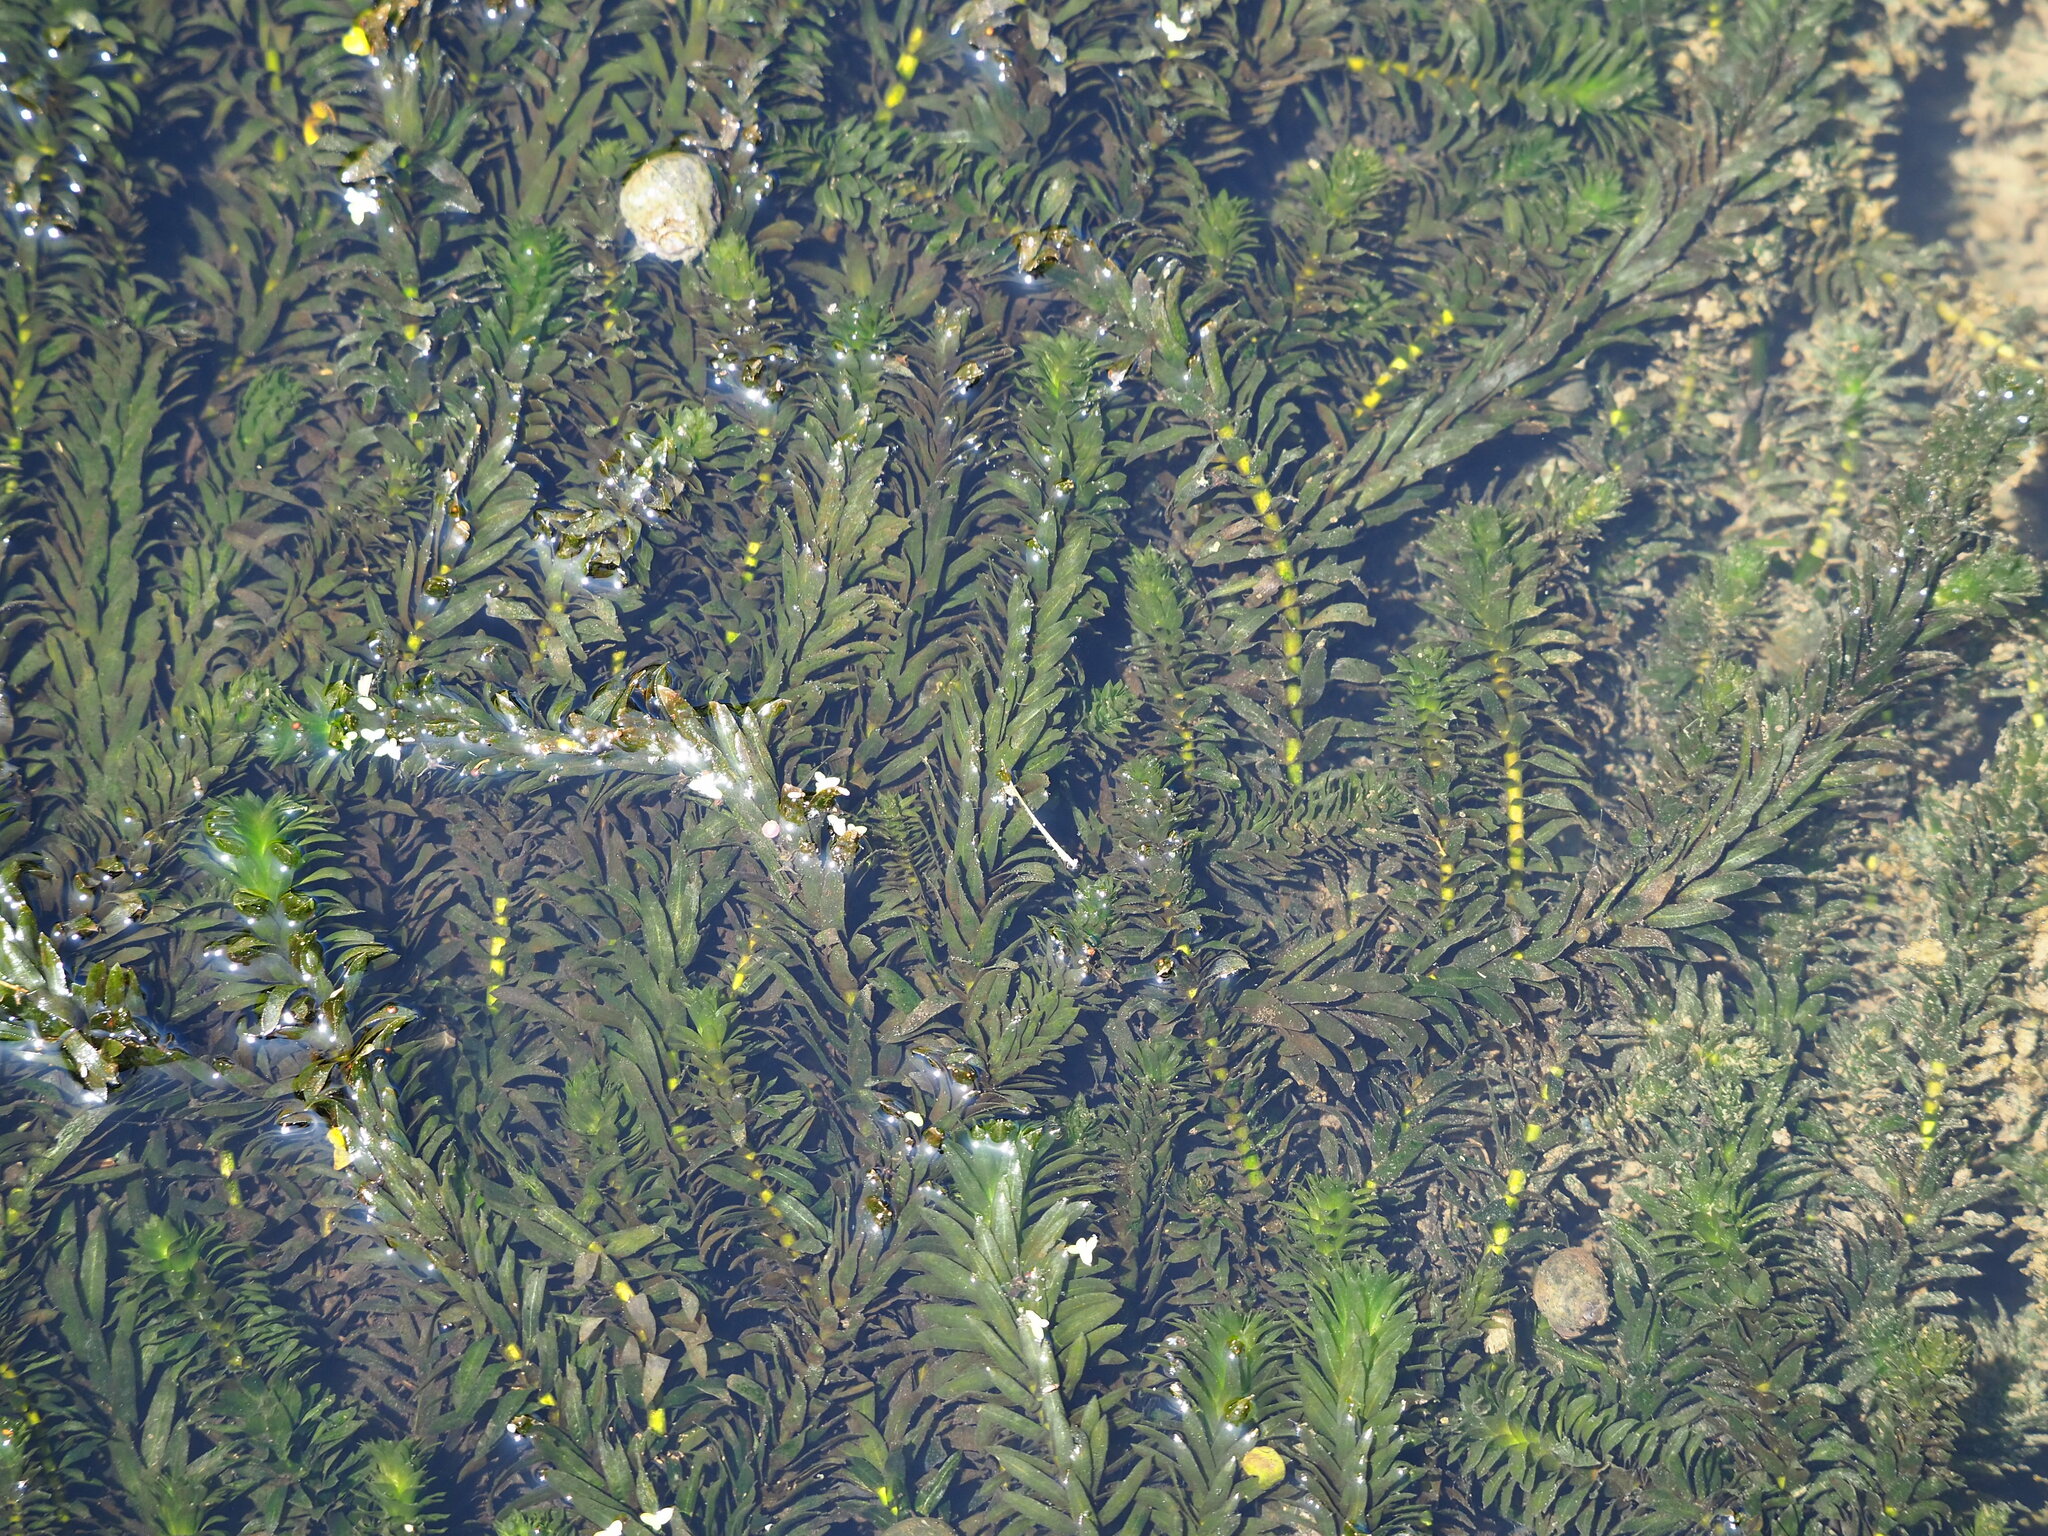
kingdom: Plantae
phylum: Tracheophyta
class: Liliopsida
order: Alismatales
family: Hydrocharitaceae
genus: Elodea
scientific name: Elodea densa
